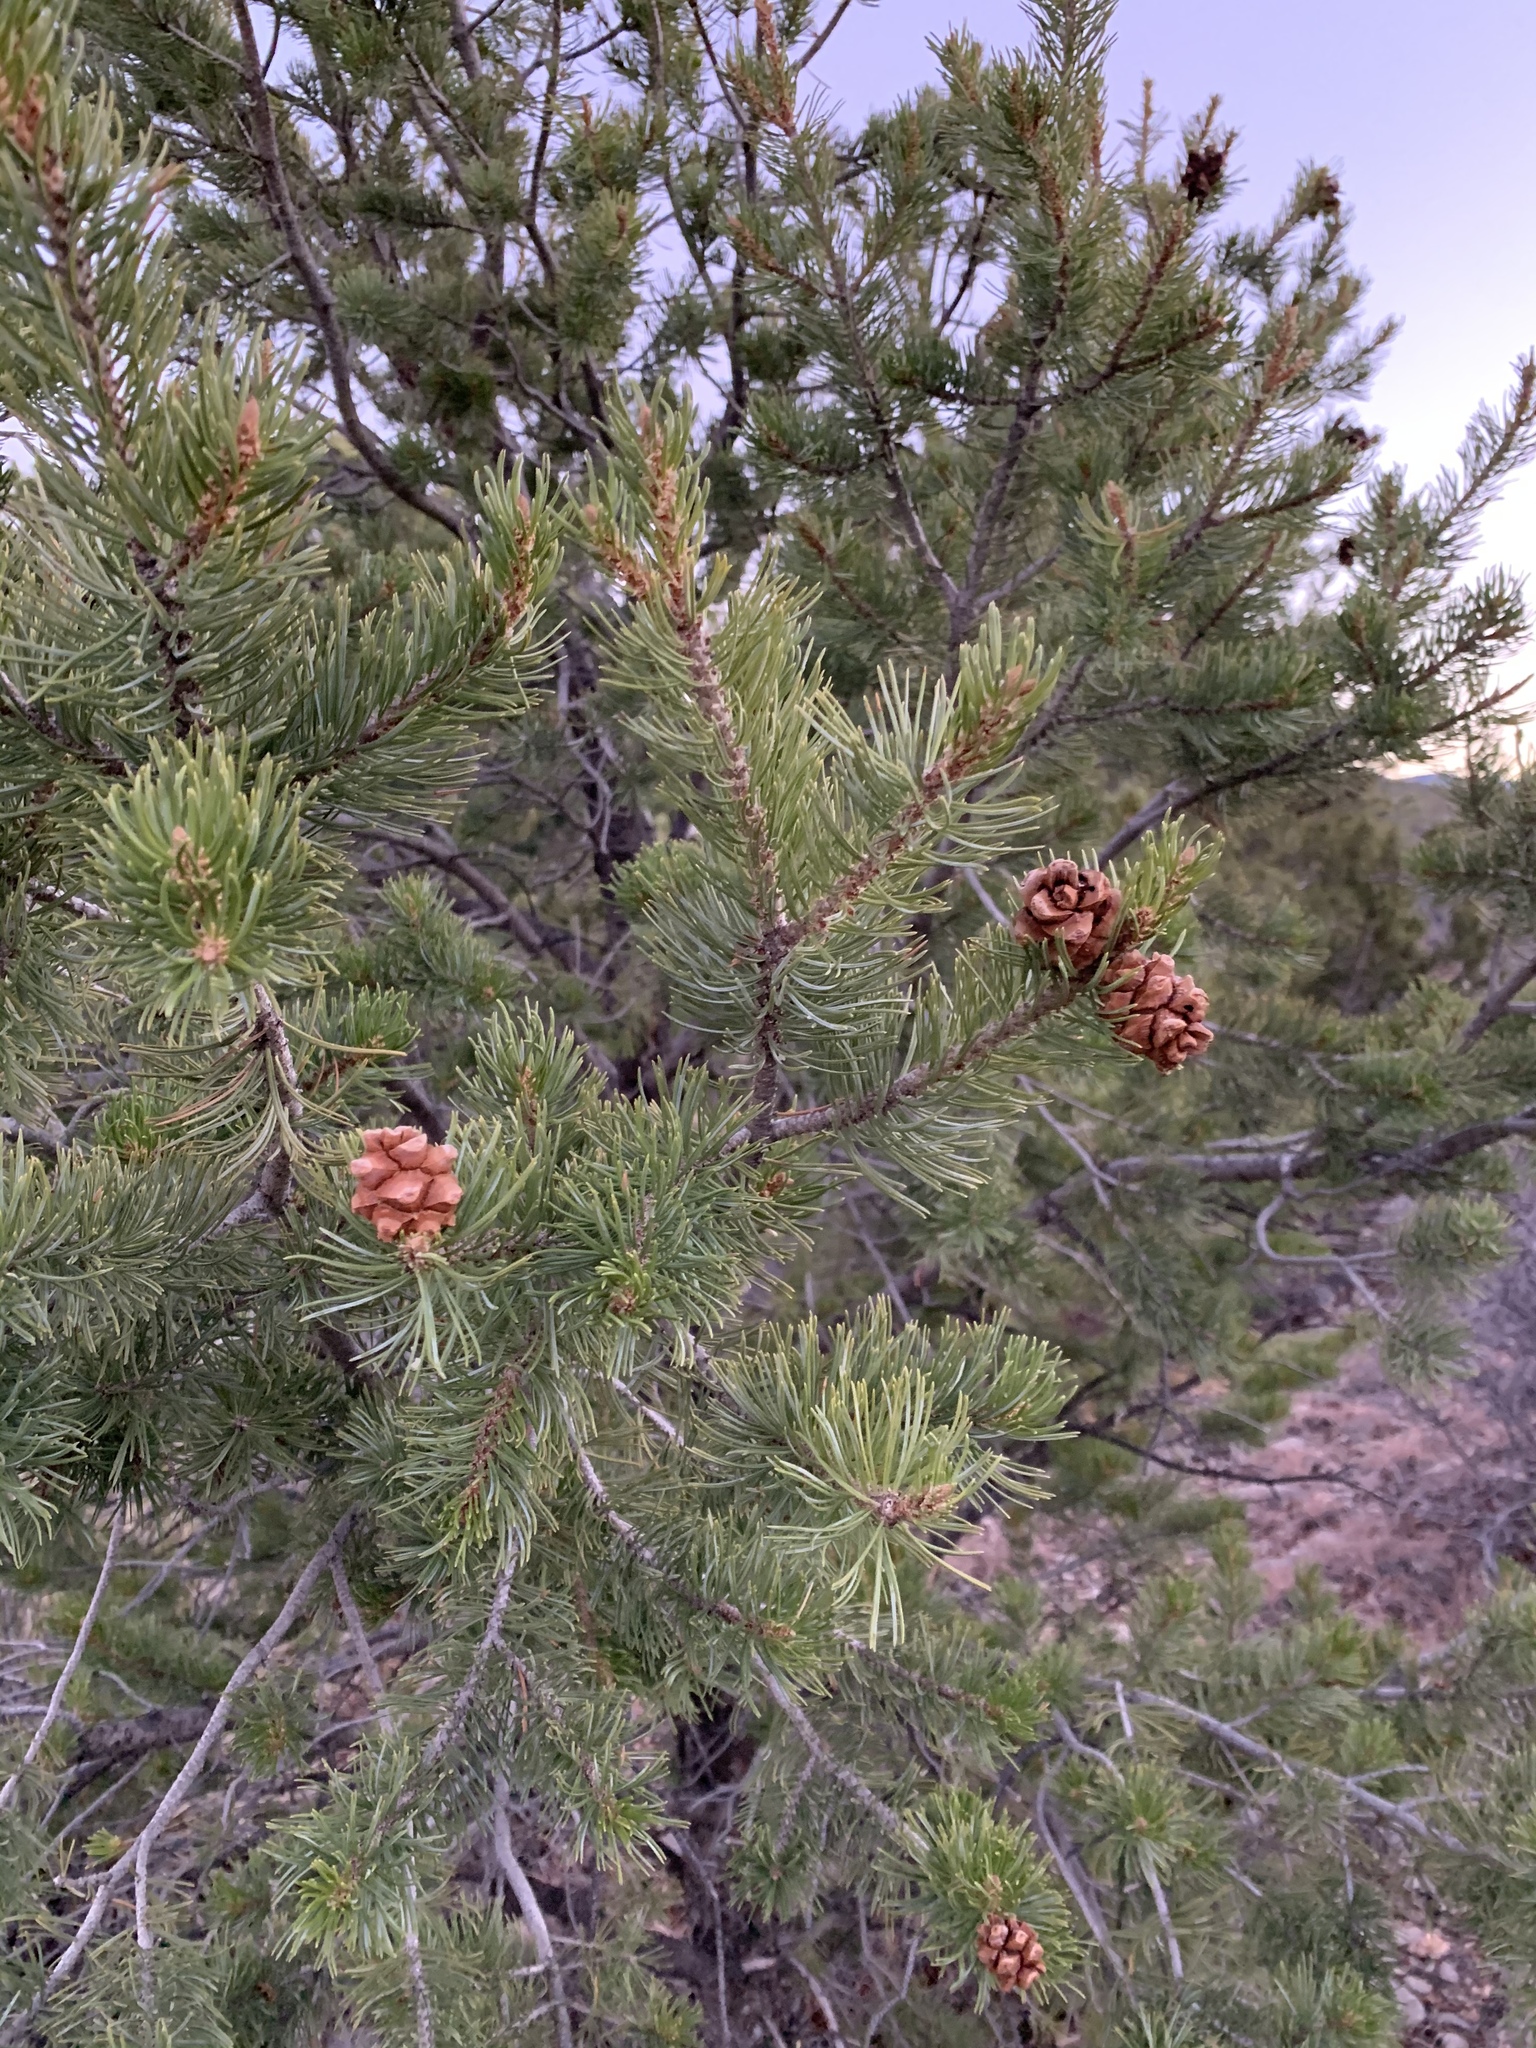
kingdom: Plantae
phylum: Tracheophyta
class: Pinopsida
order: Pinales
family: Pinaceae
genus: Pinus
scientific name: Pinus edulis
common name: Colorado pinyon
